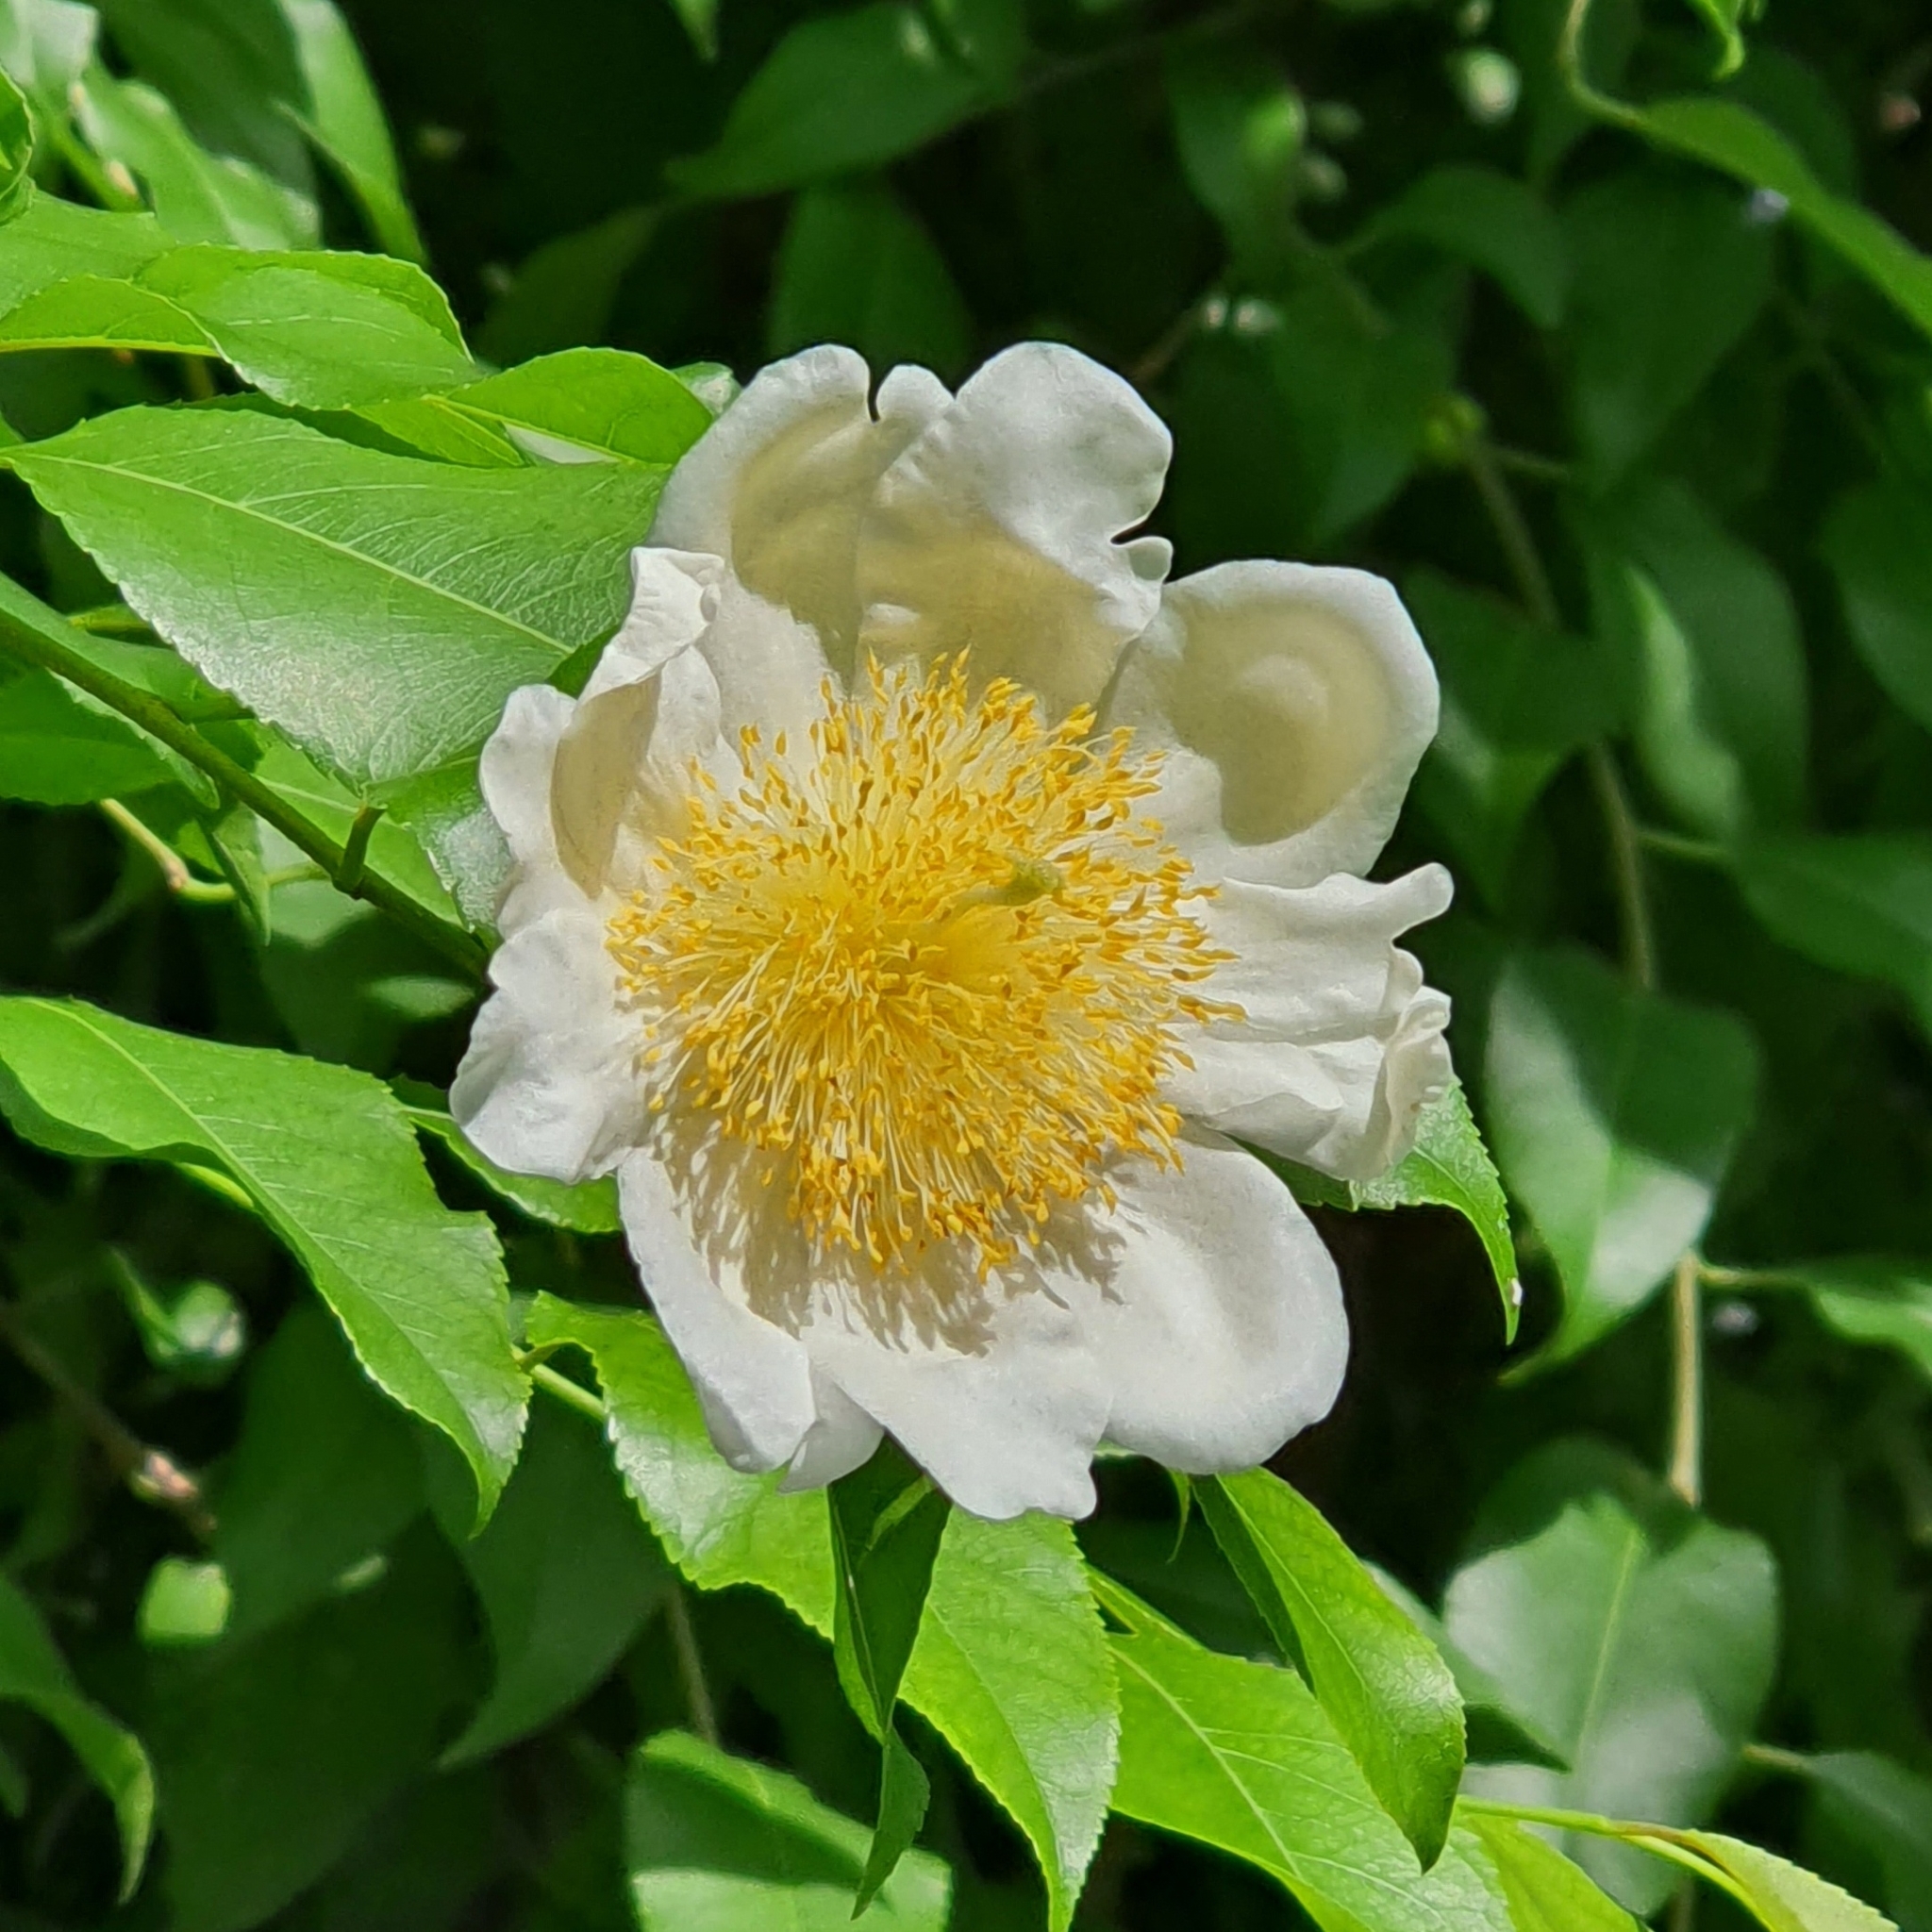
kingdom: Plantae
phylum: Tracheophyta
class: Magnoliopsida
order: Malpighiales
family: Salicaceae
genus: Oncoba
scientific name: Oncoba spinosa
